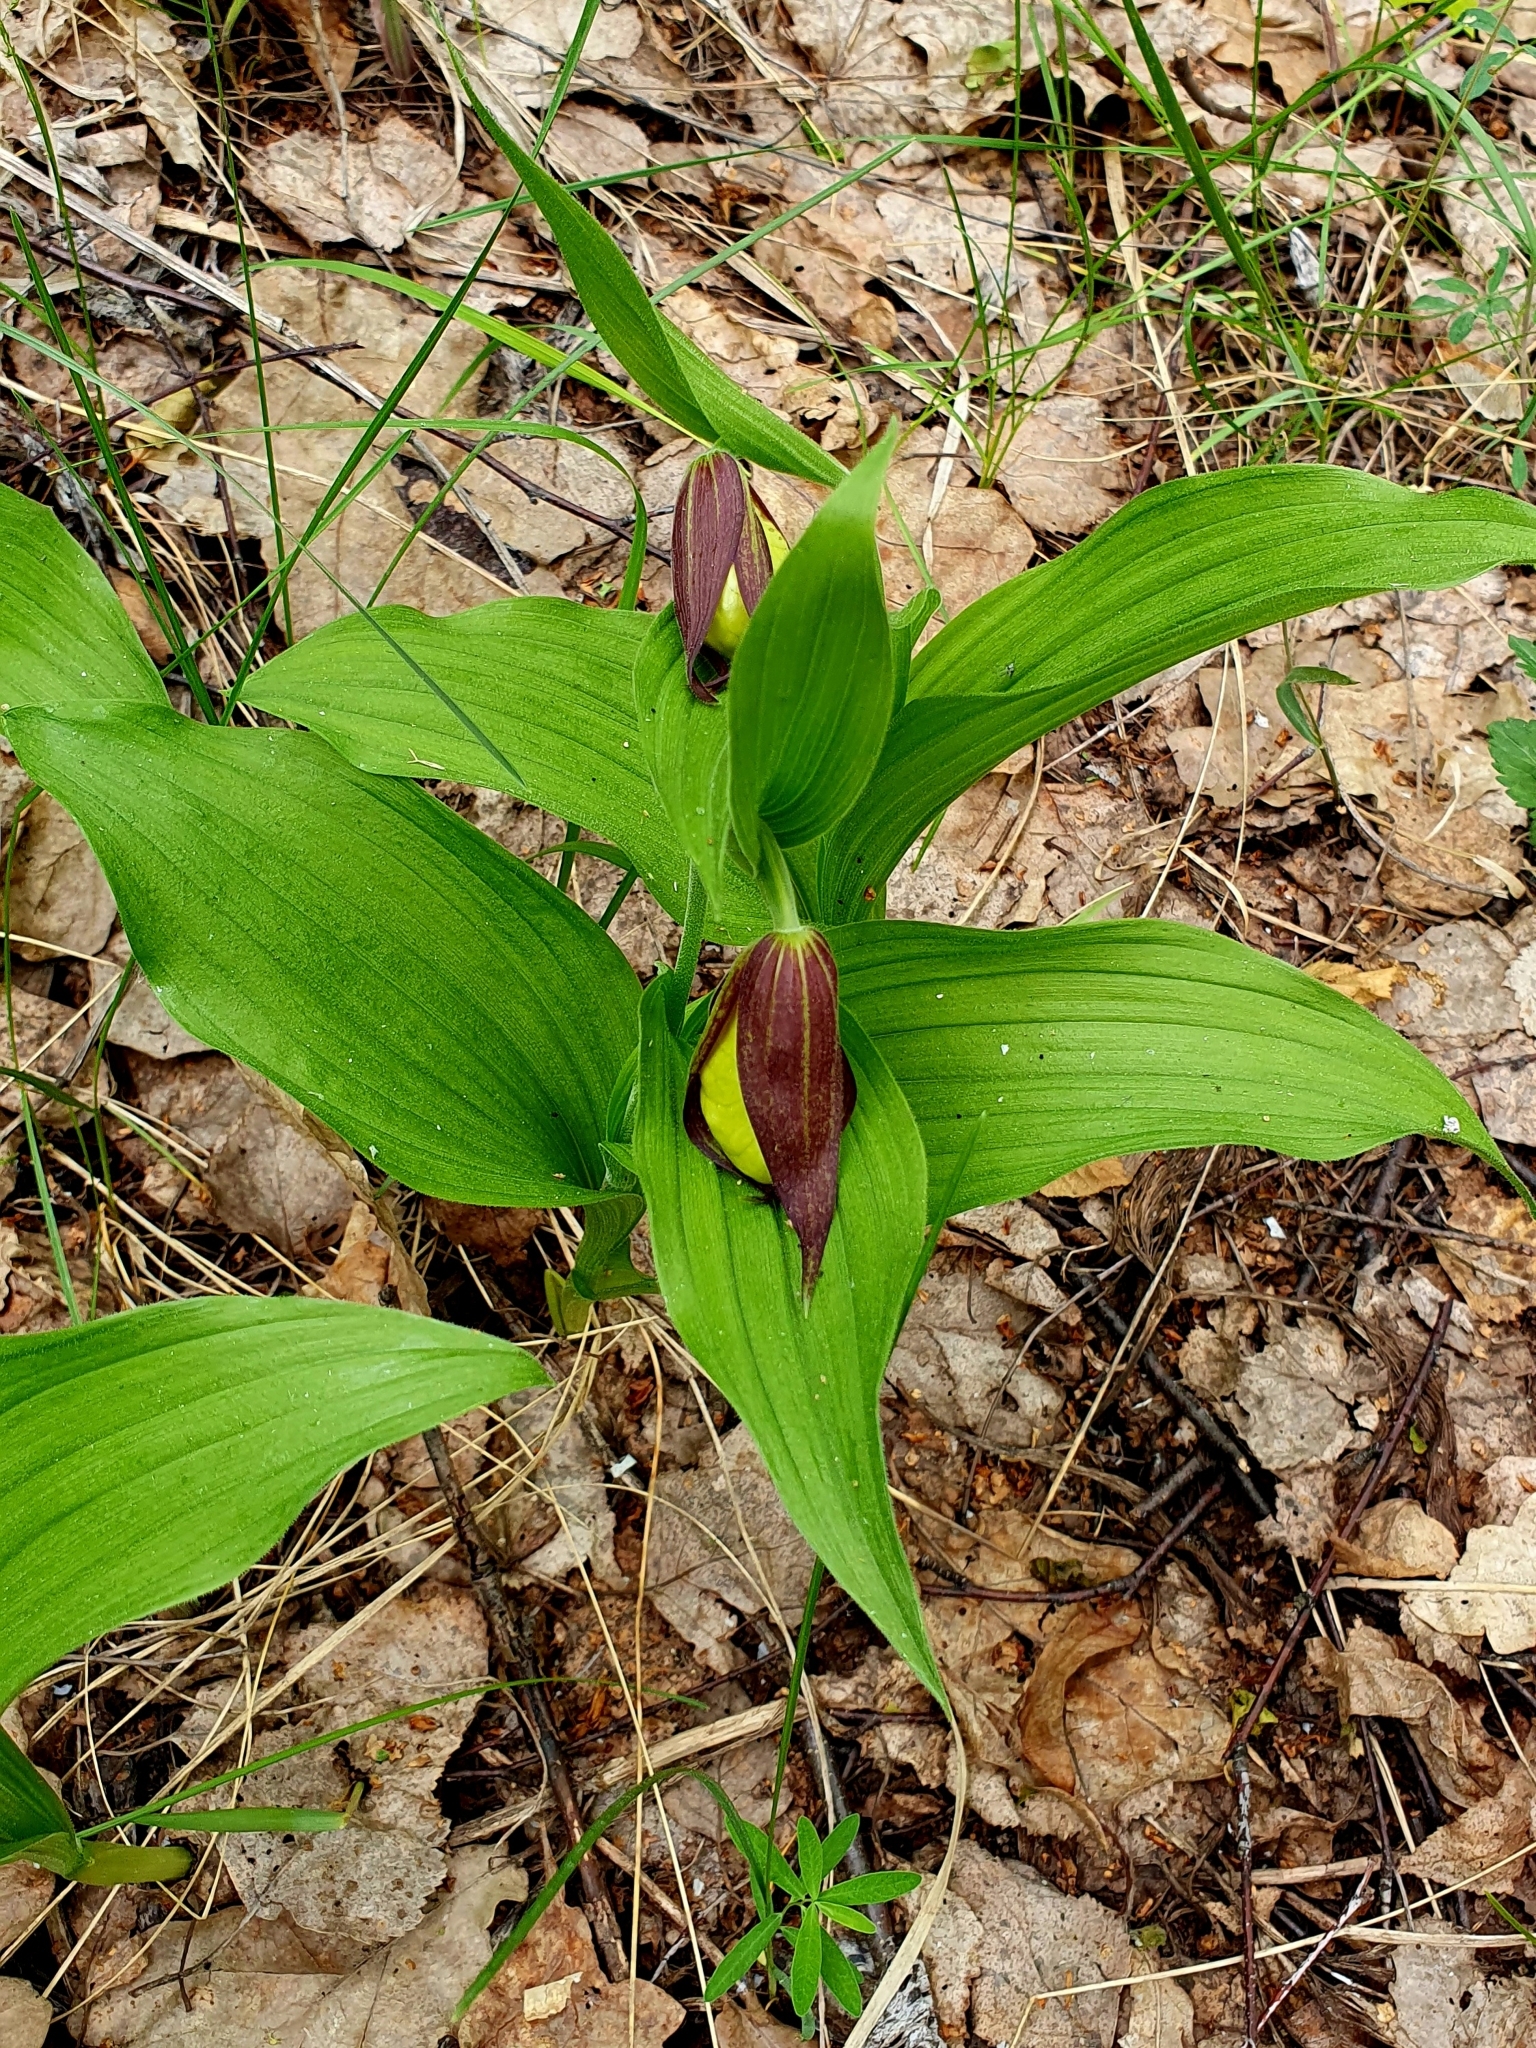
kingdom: Plantae
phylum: Tracheophyta
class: Liliopsida
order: Asparagales
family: Orchidaceae
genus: Cypripedium
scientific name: Cypripedium calceolus
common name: Lady's-slipper
